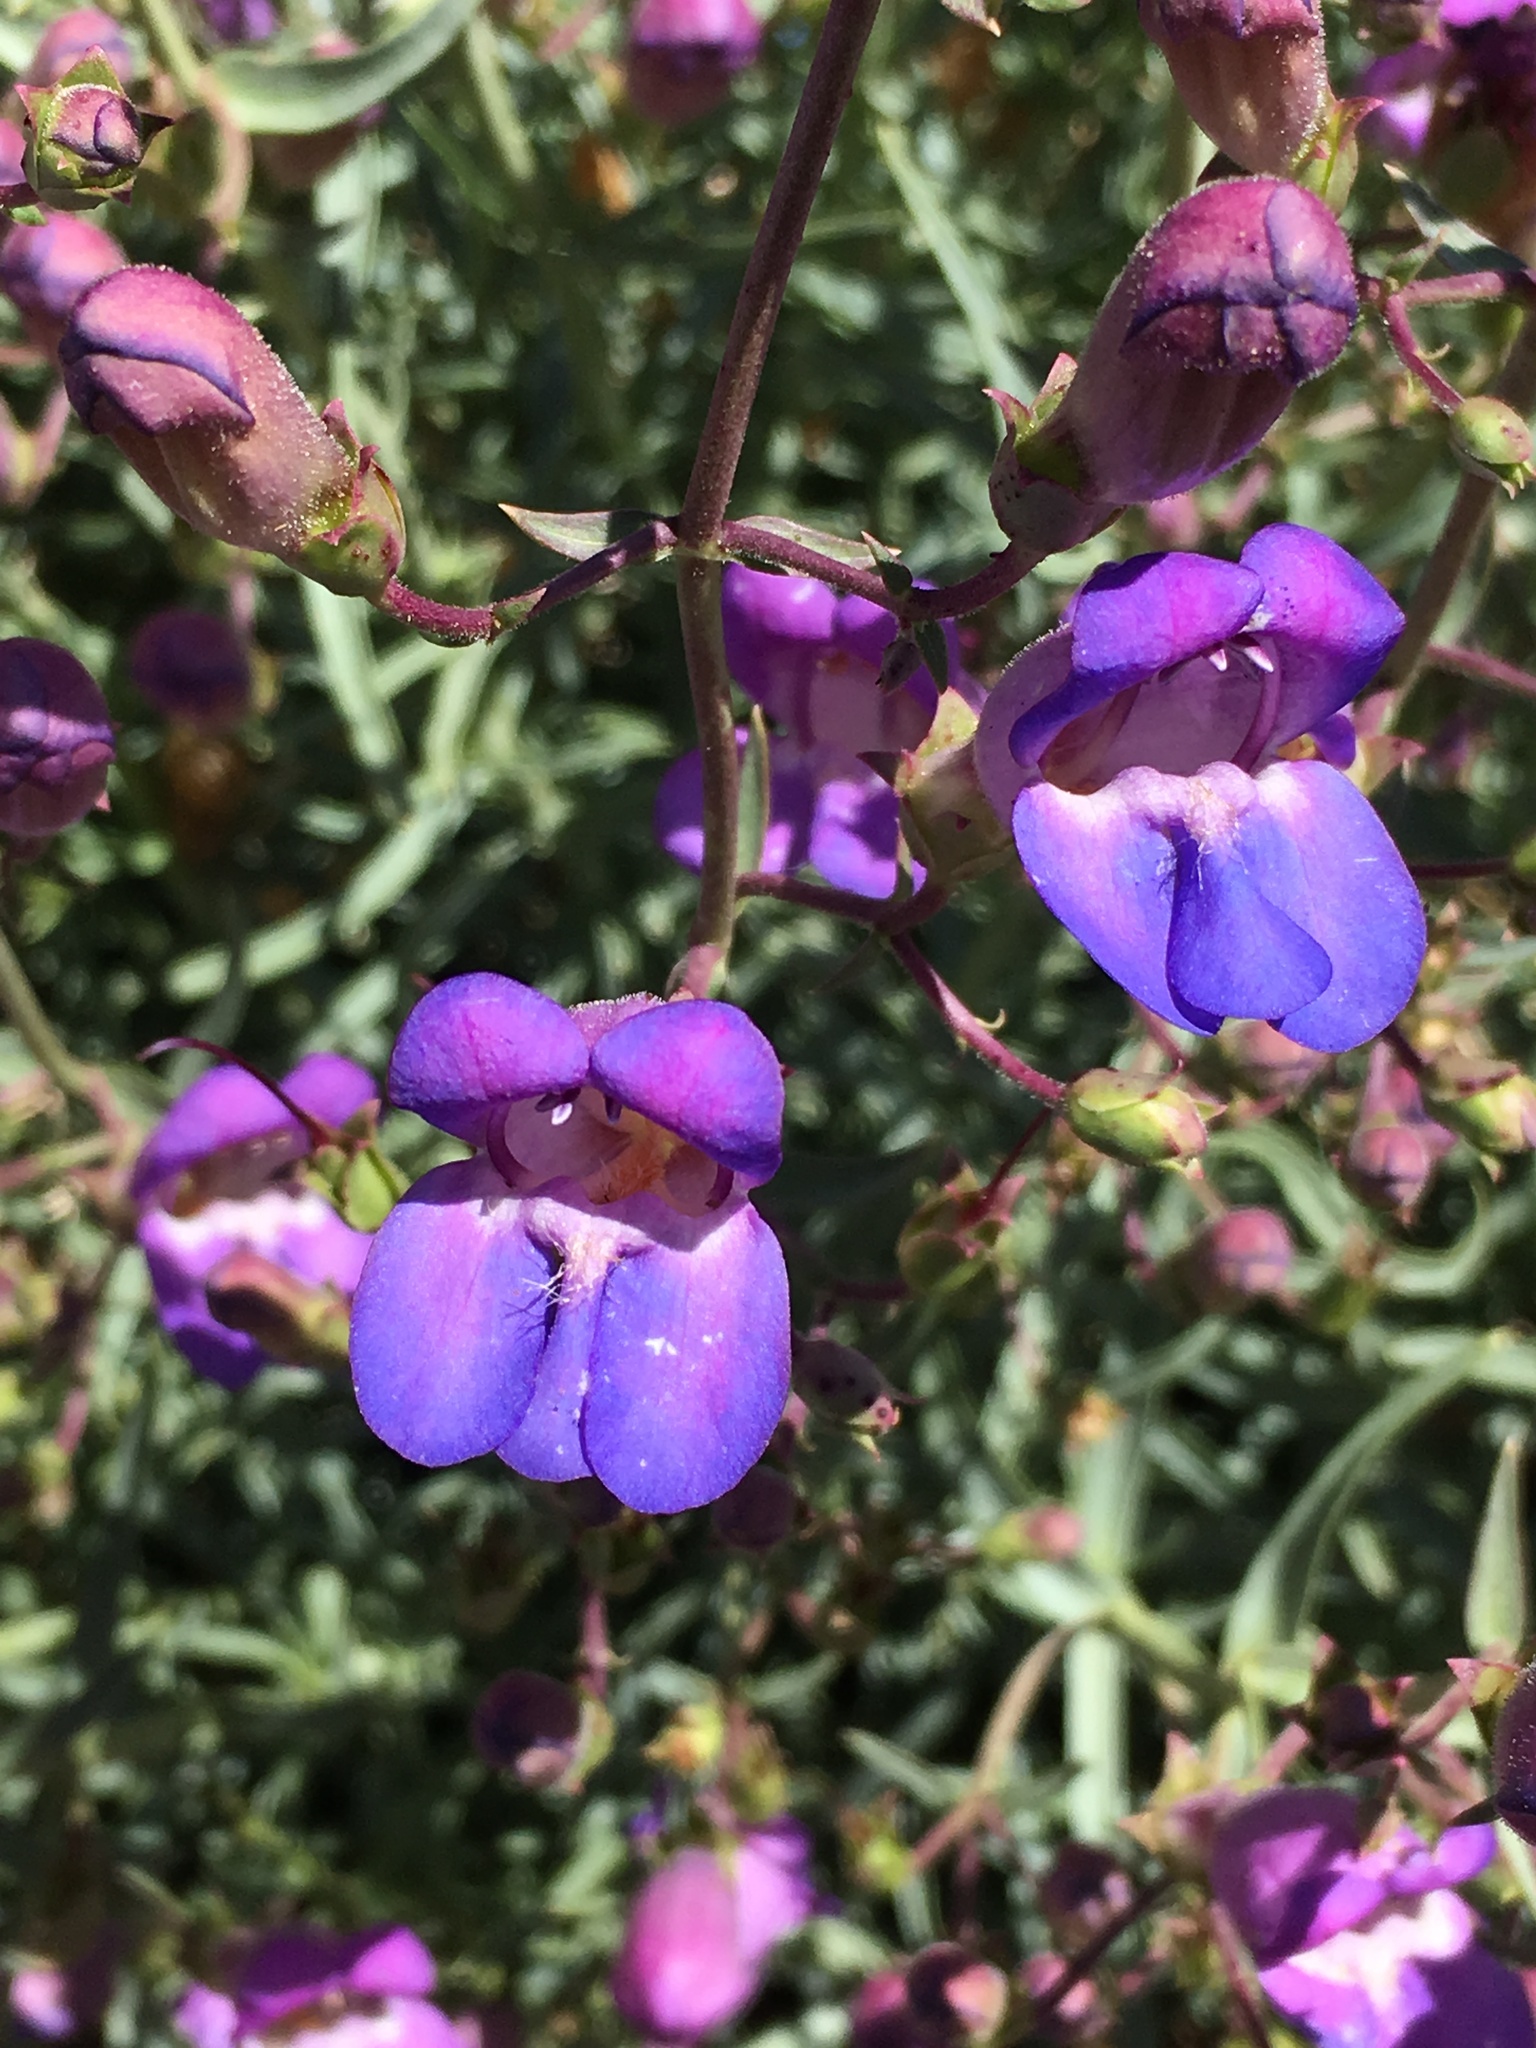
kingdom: Plantae
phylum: Tracheophyta
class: Magnoliopsida
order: Lamiales
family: Plantaginaceae
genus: Penstemon
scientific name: Penstemon incertus
